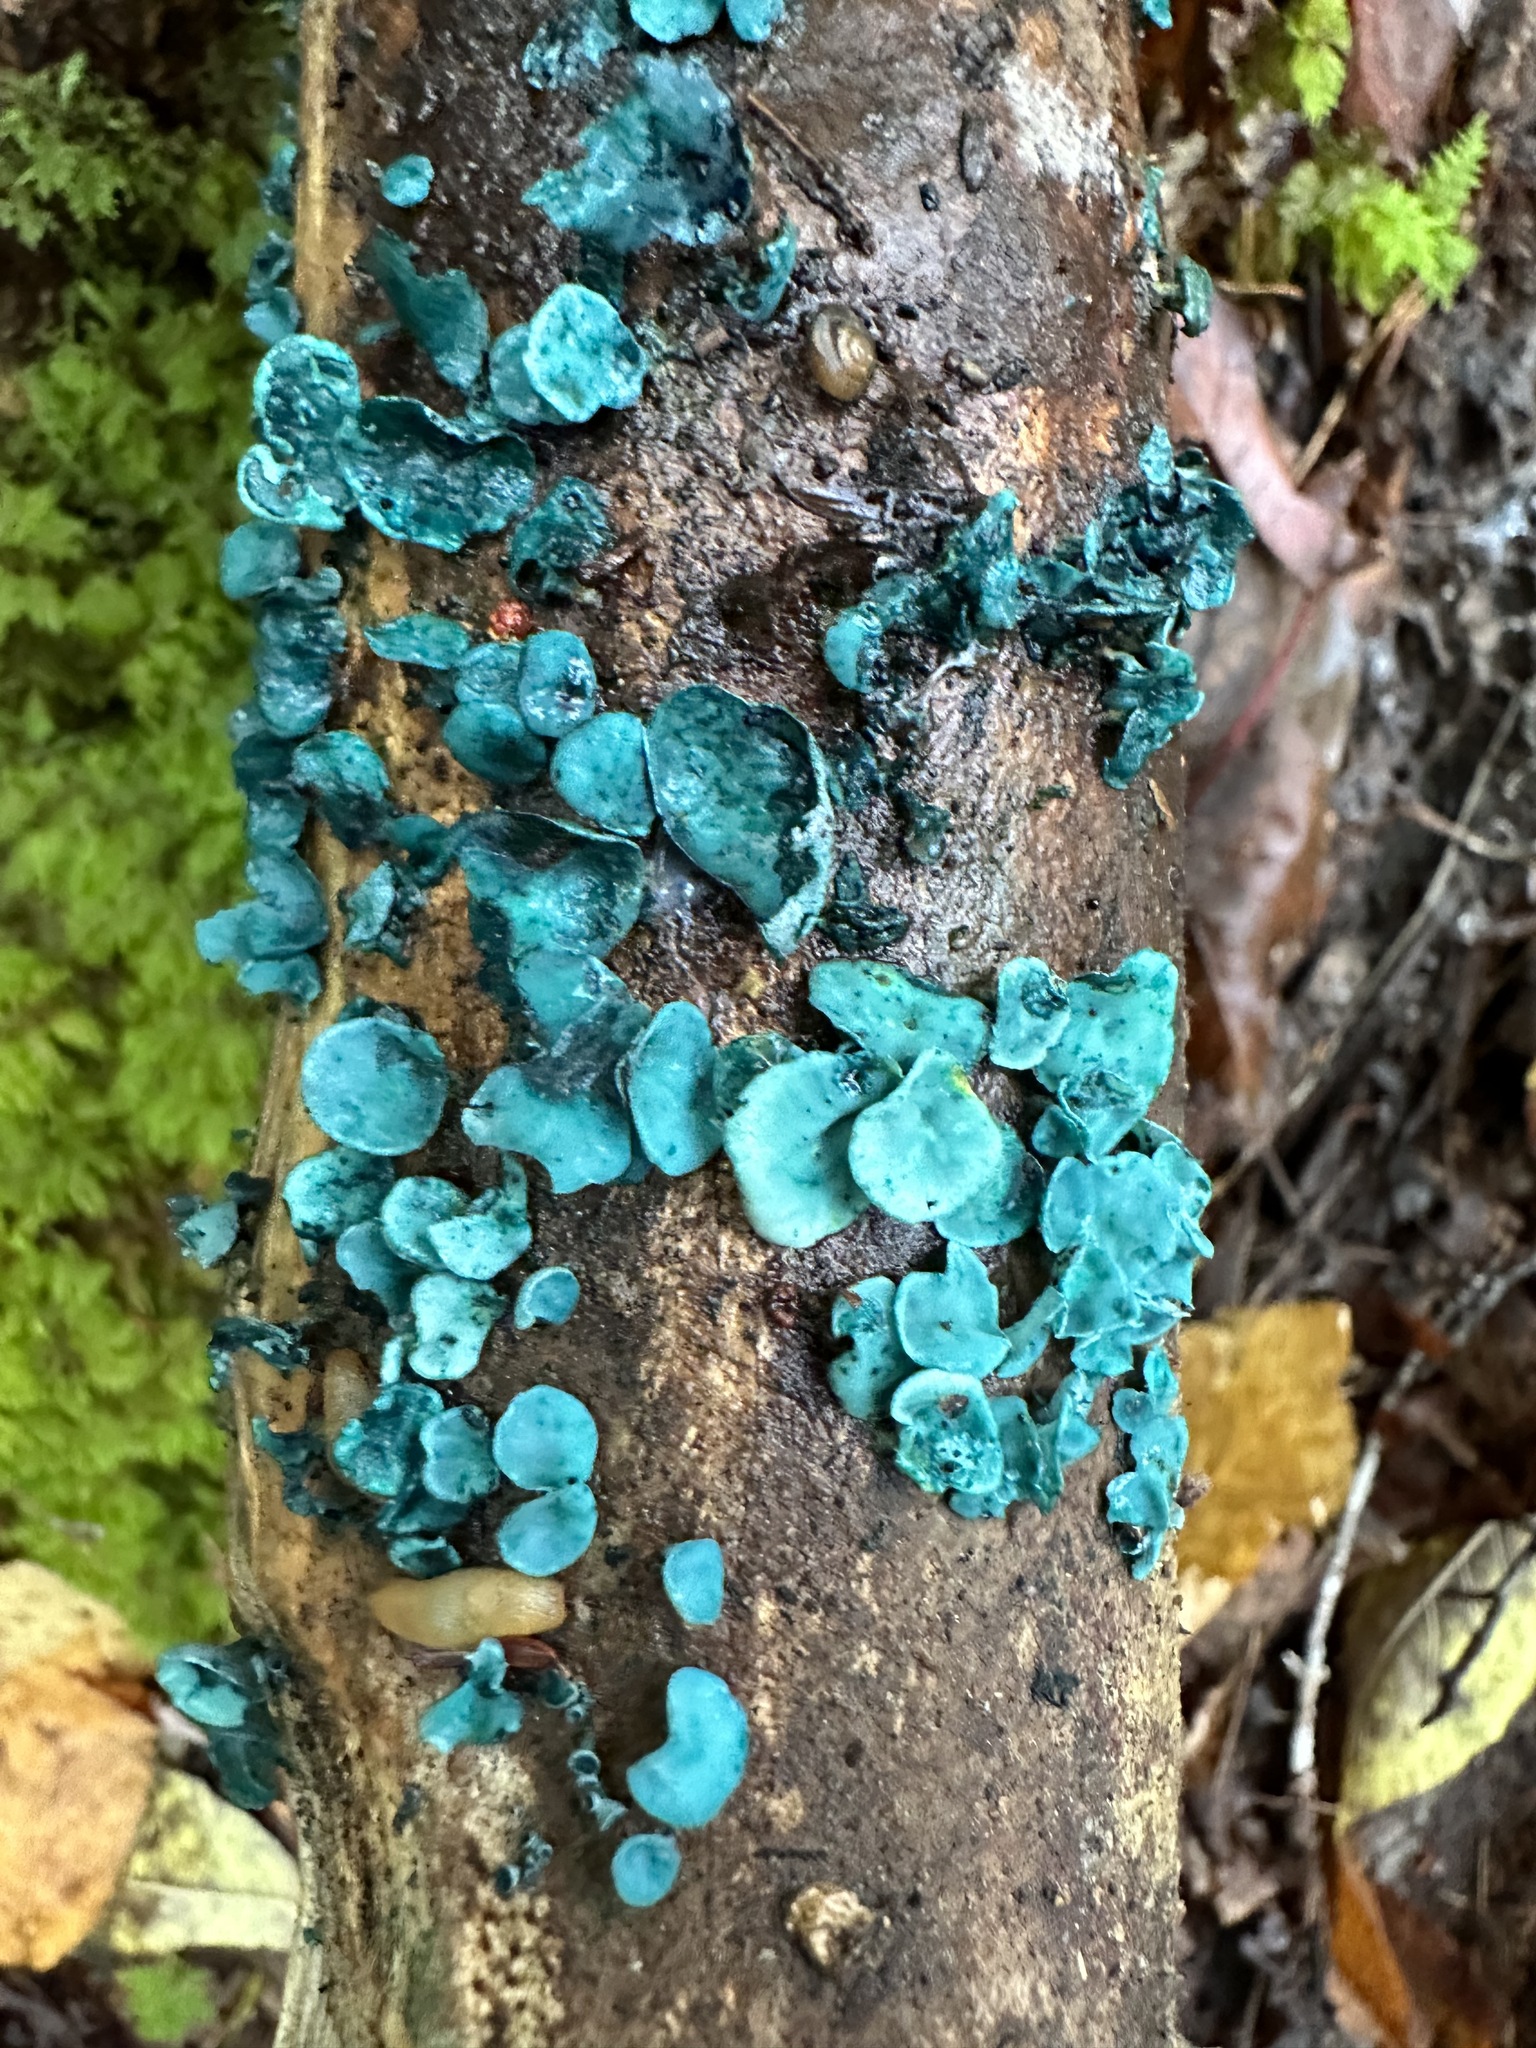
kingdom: Fungi
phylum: Ascomycota
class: Leotiomycetes
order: Helotiales
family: Chlorociboriaceae
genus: Chlorociboria
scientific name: Chlorociboria aeruginascens
